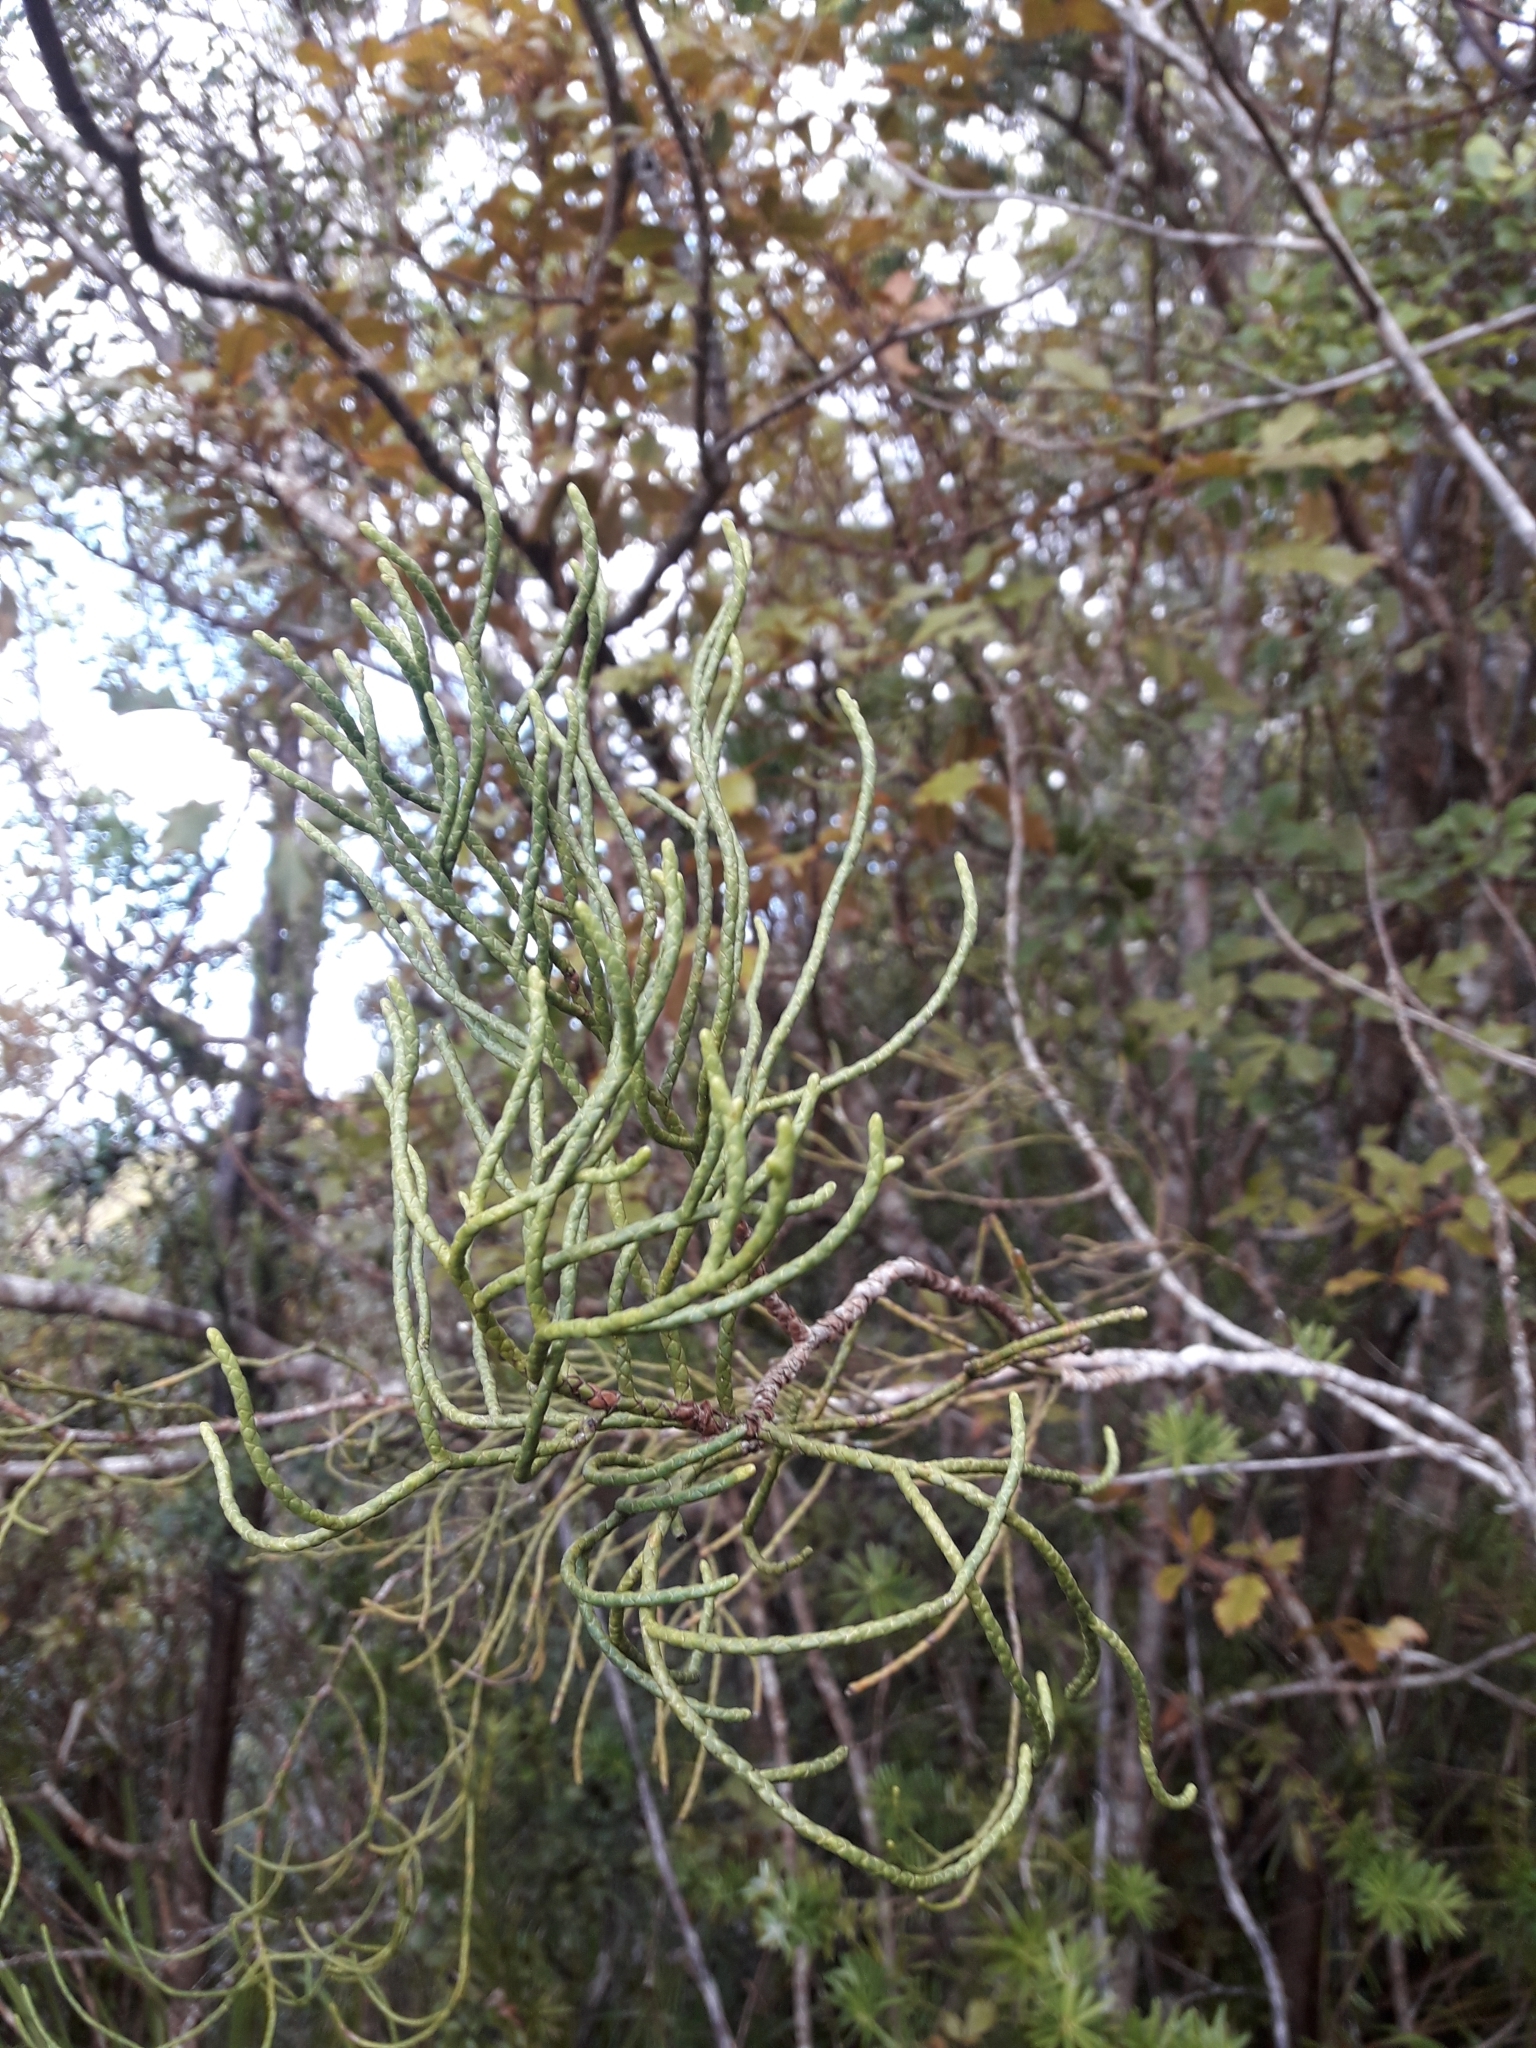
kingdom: Plantae
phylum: Tracheophyta
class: Pinopsida
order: Pinales
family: Podocarpaceae
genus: Halocarpus
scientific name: Halocarpus kirkii
